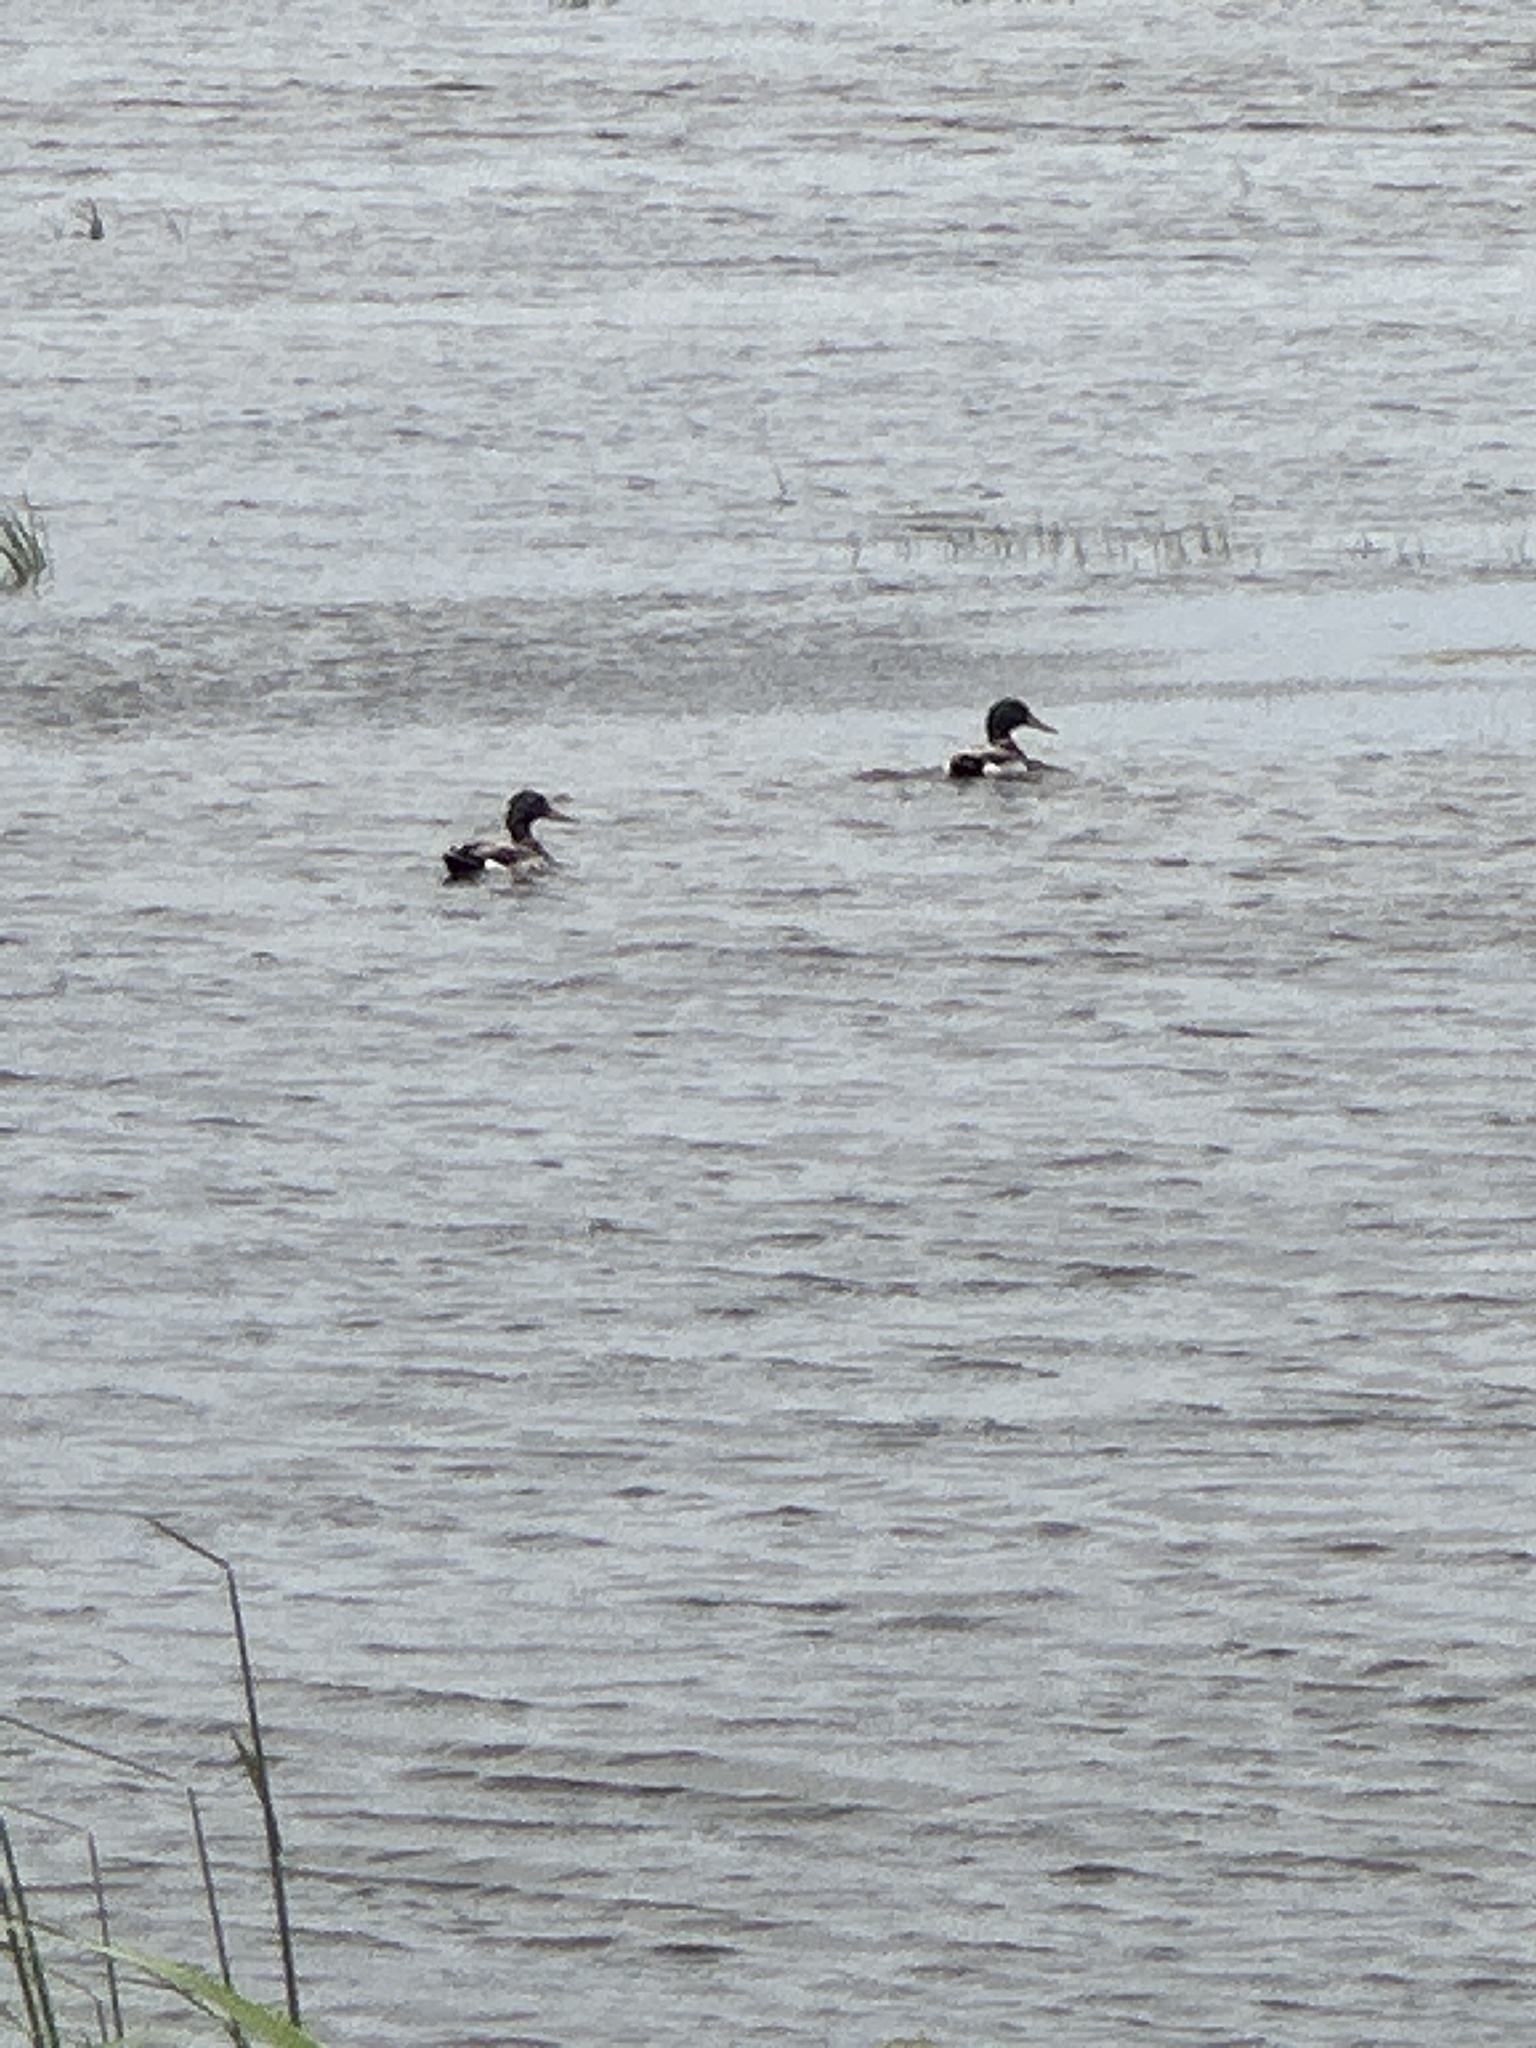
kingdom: Animalia
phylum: Chordata
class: Aves
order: Anseriformes
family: Anatidae
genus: Anas
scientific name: Anas platyrhynchos
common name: Mallard
